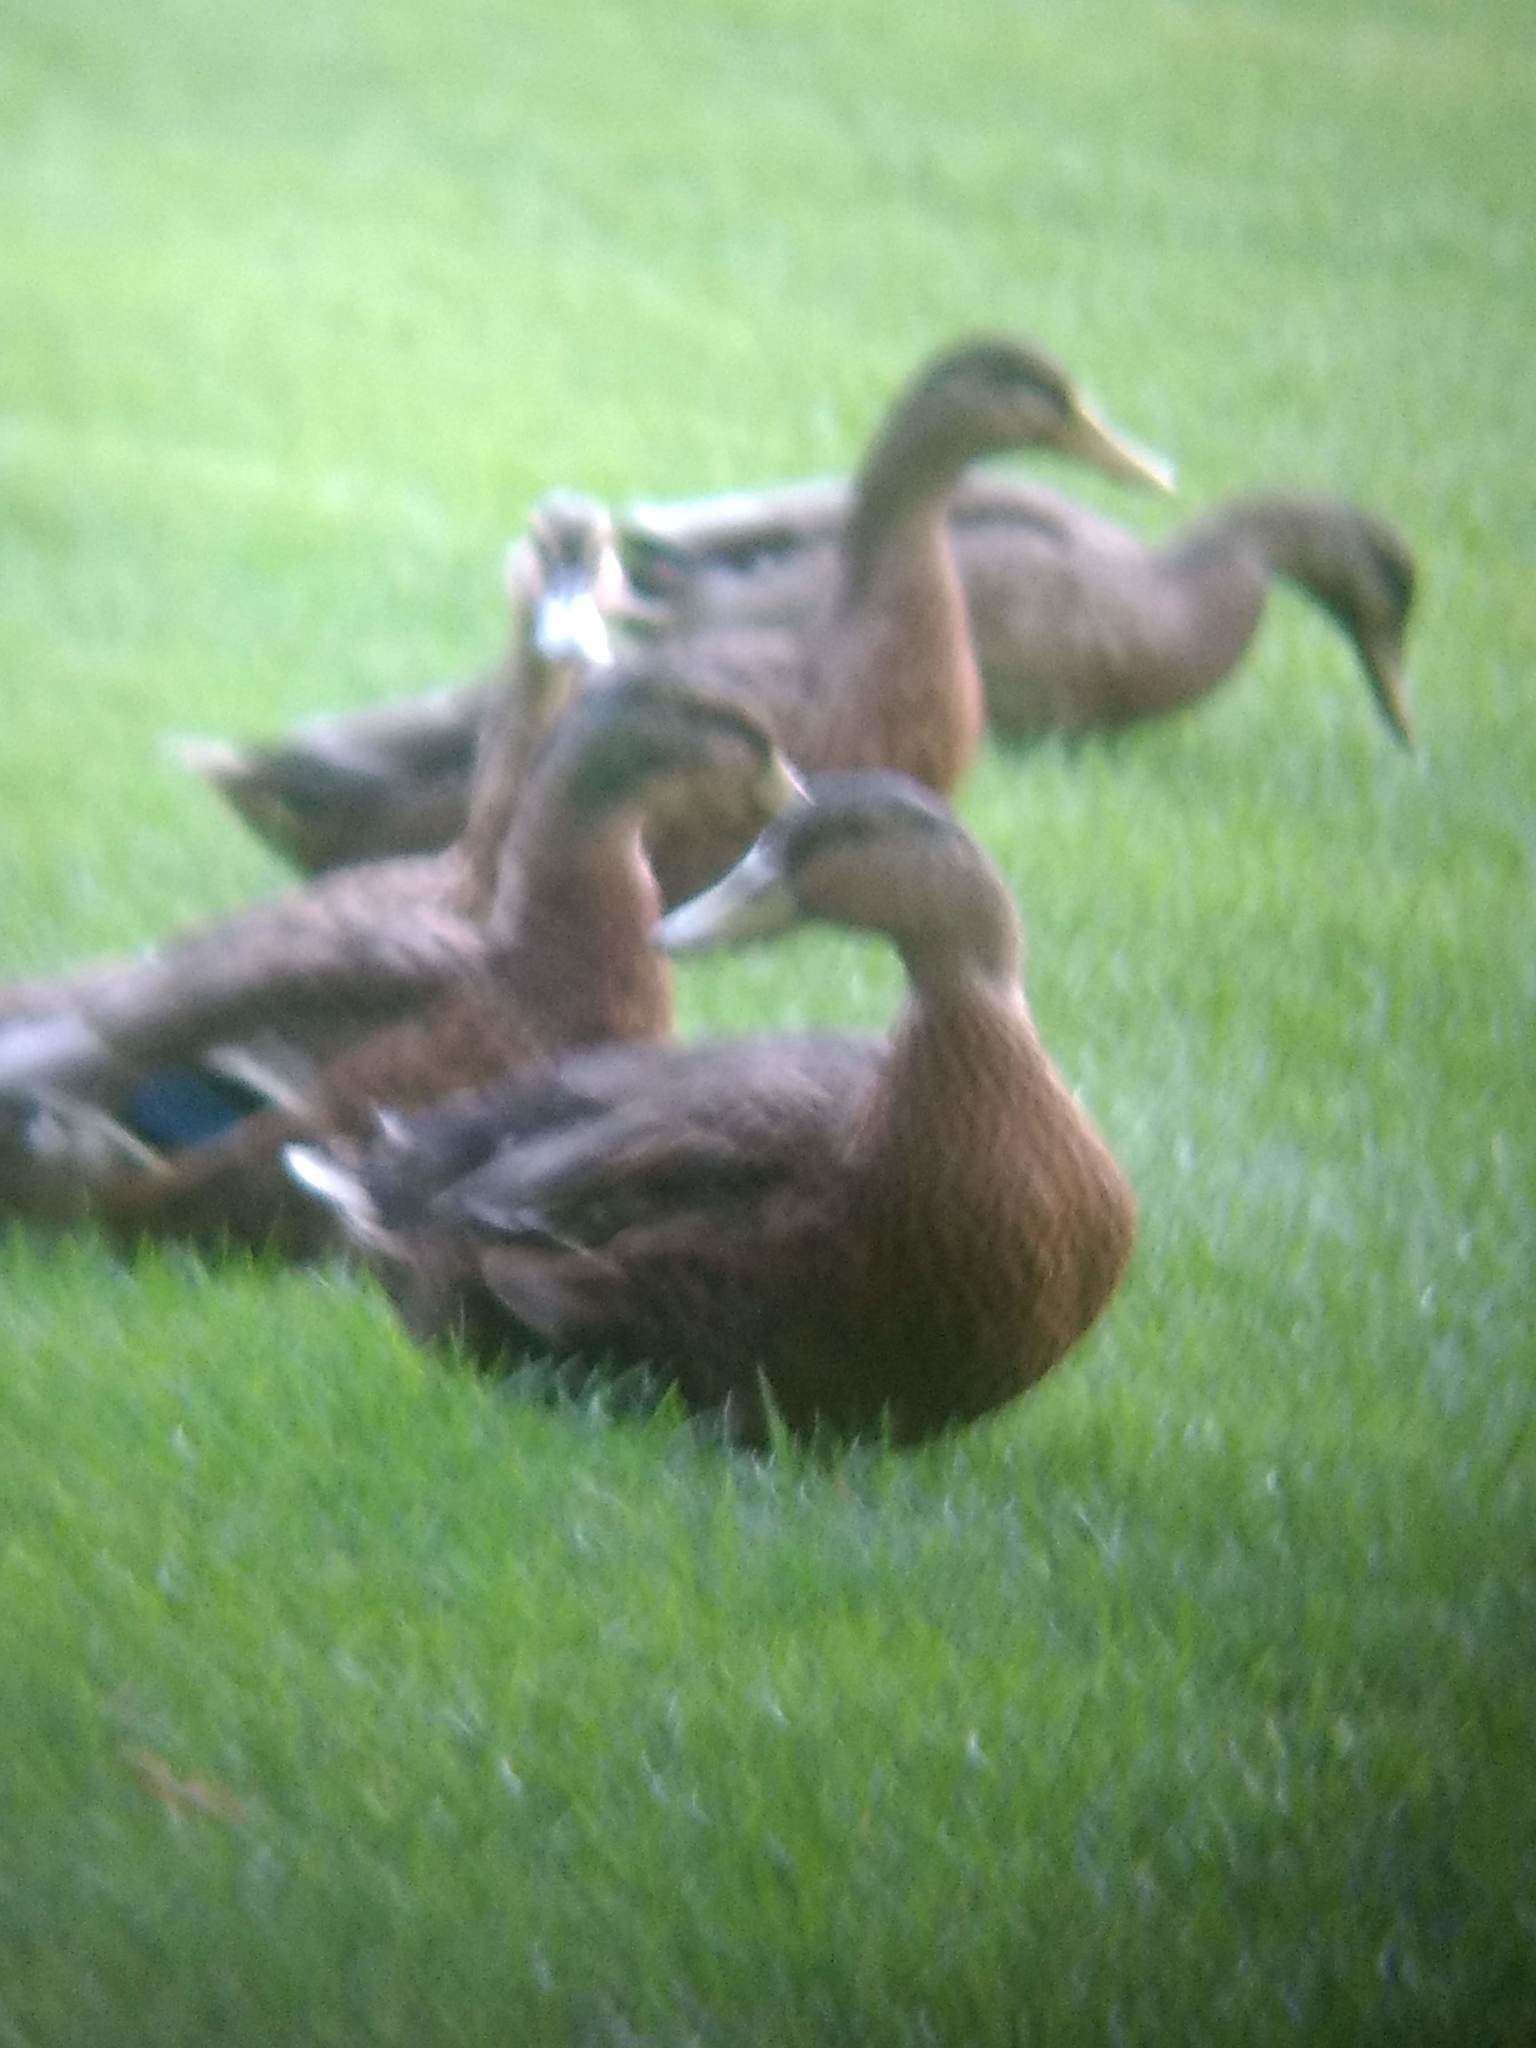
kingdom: Animalia
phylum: Chordata
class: Aves
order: Anseriformes
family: Anatidae
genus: Anas
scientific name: Anas platyrhynchos
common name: Mallard
